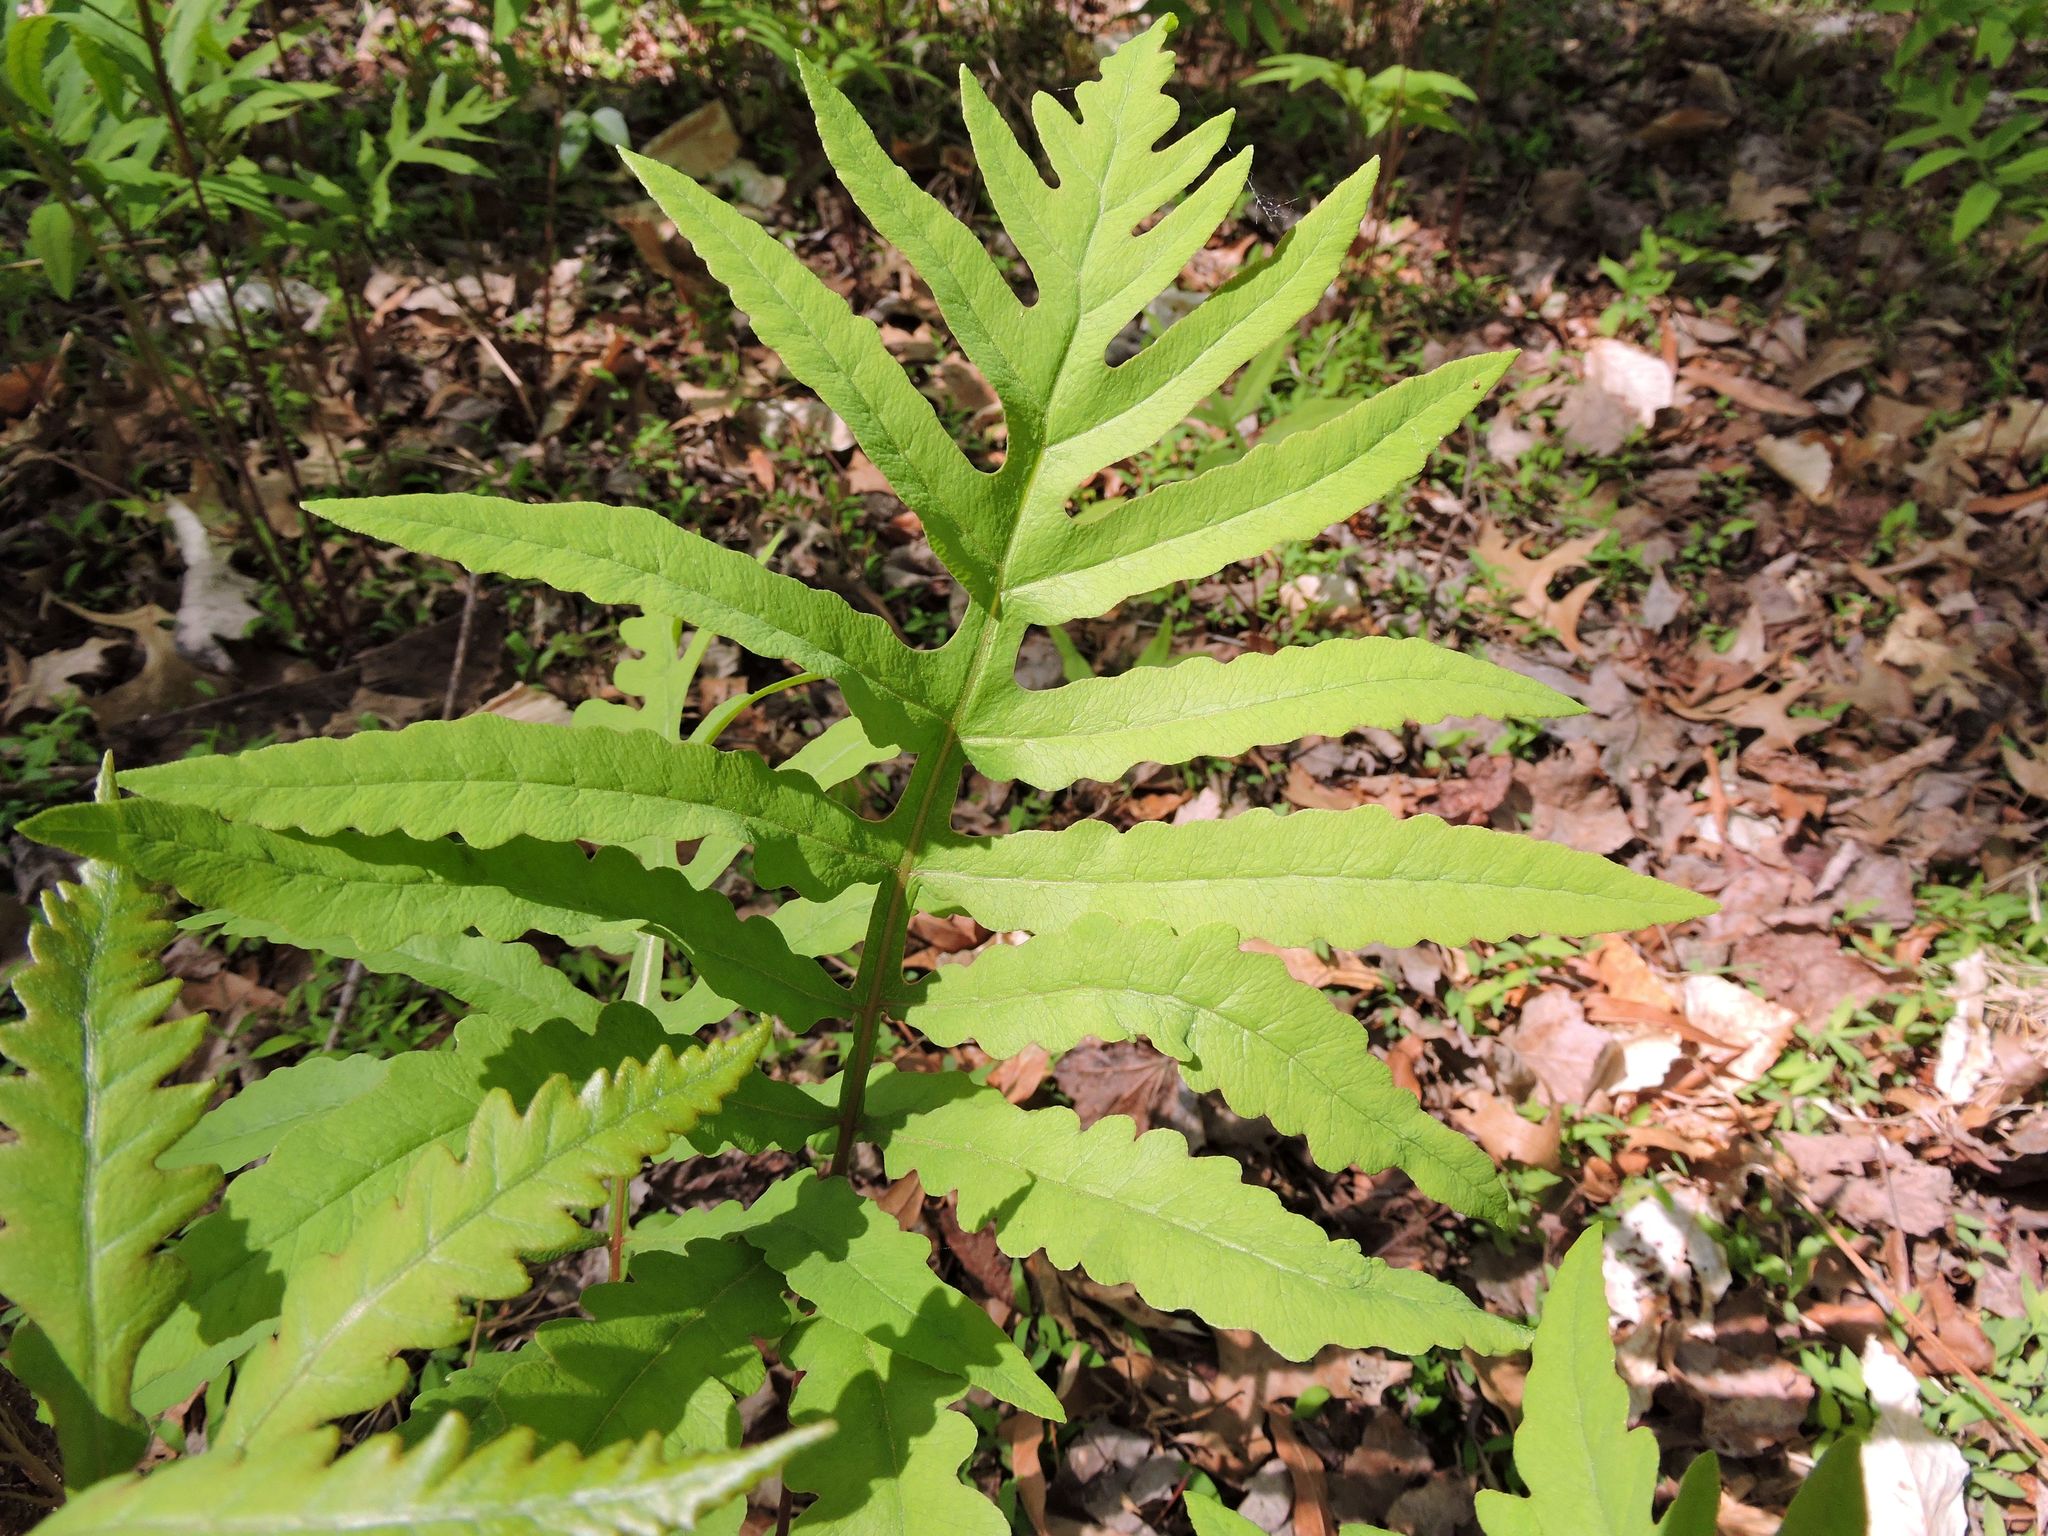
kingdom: Plantae
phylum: Tracheophyta
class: Polypodiopsida
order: Polypodiales
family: Onocleaceae
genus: Onoclea
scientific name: Onoclea sensibilis
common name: Sensitive fern
